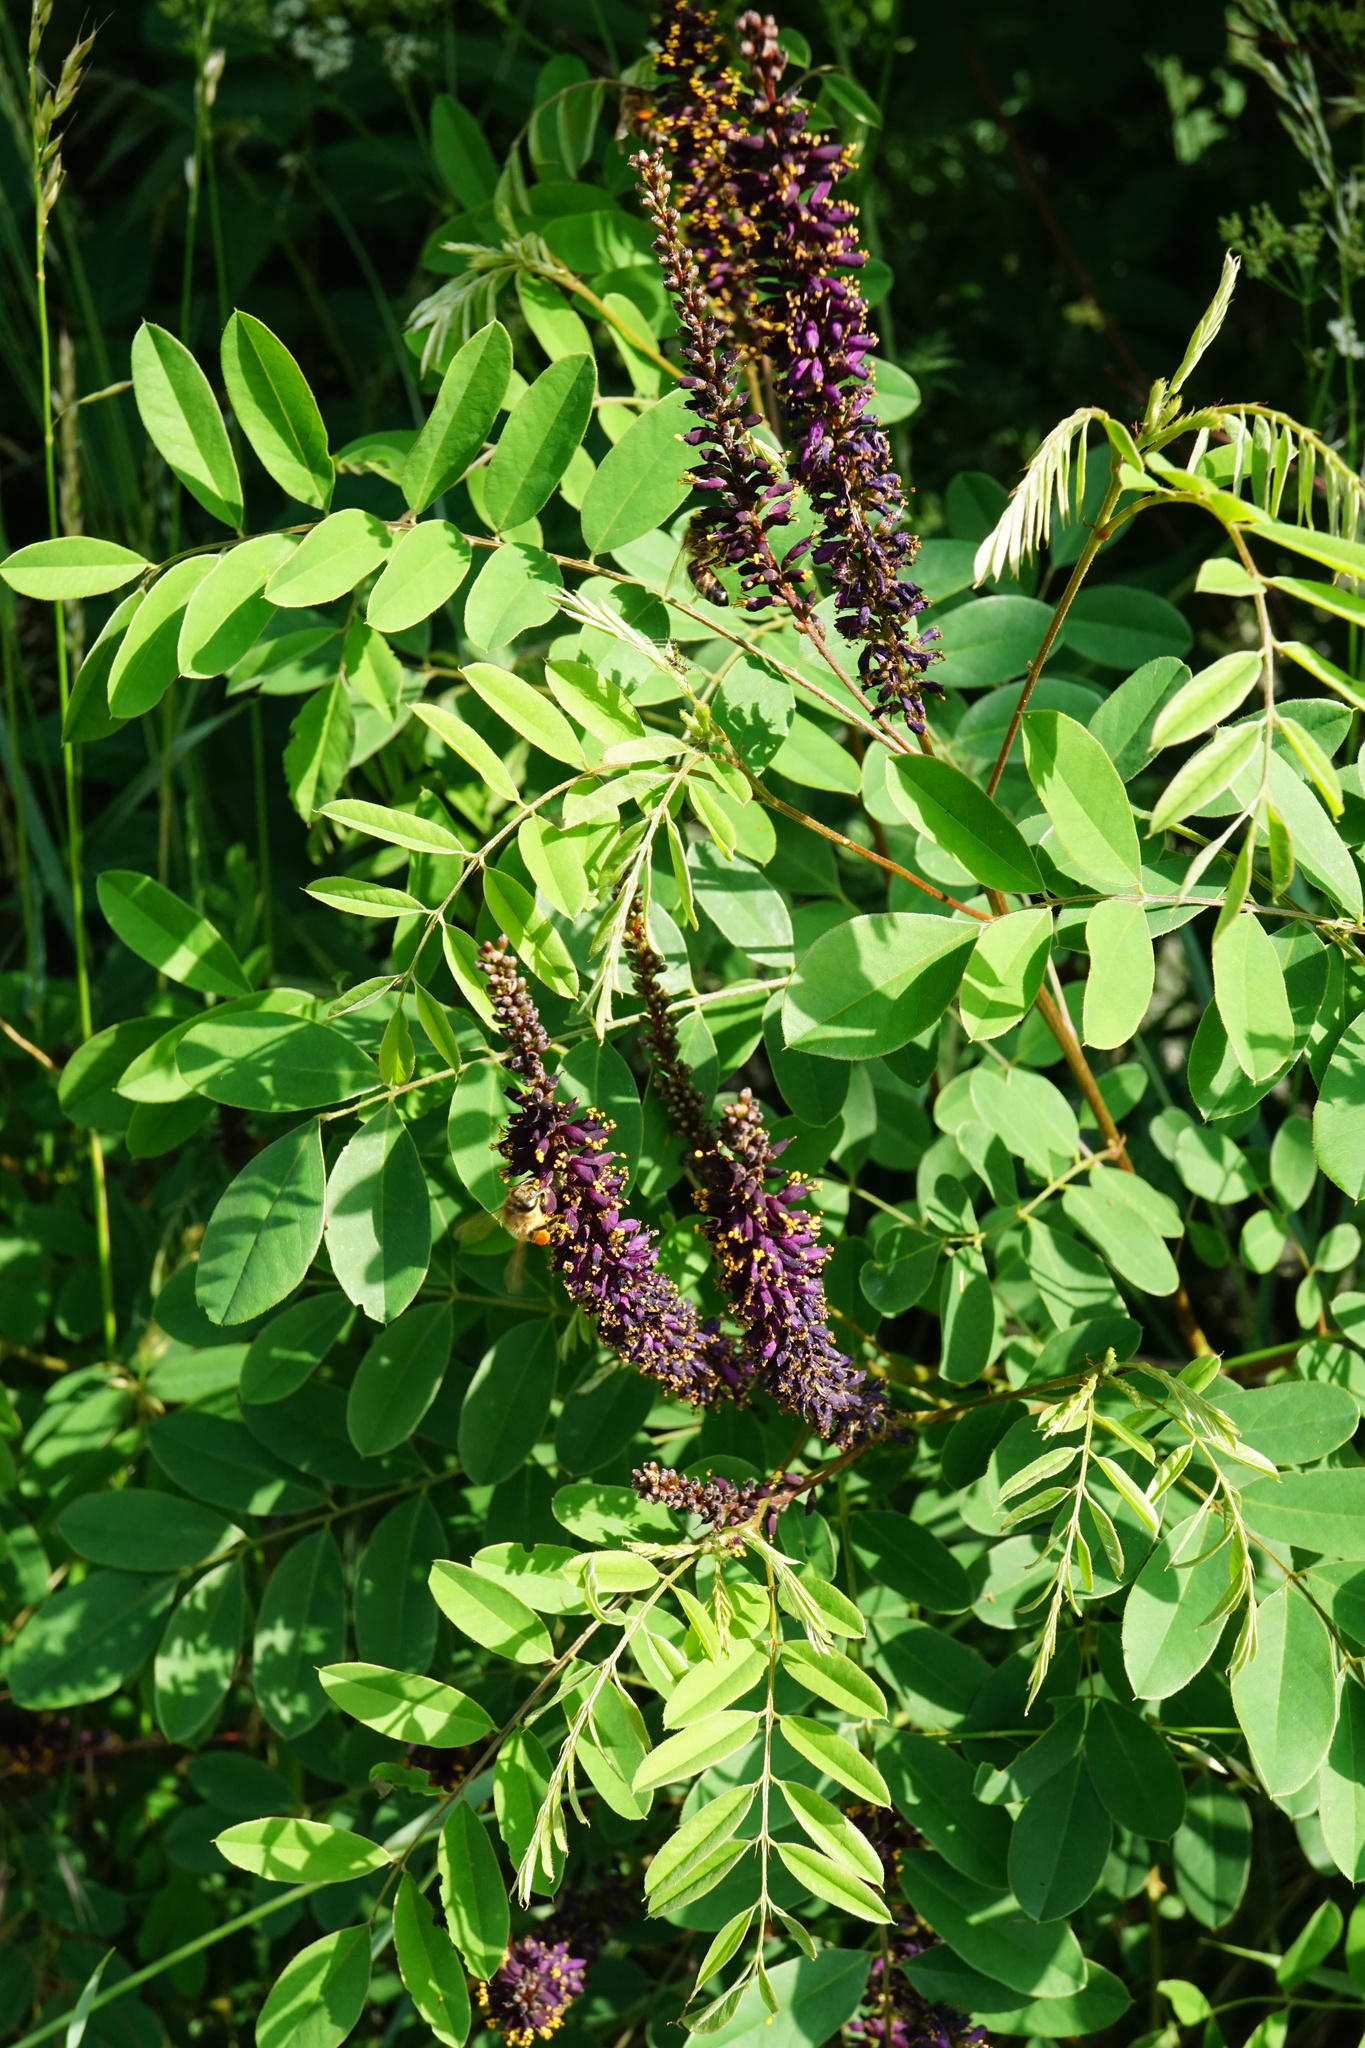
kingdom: Plantae
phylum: Tracheophyta
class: Magnoliopsida
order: Fabales
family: Fabaceae
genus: Amorpha
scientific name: Amorpha fruticosa
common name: False indigo
